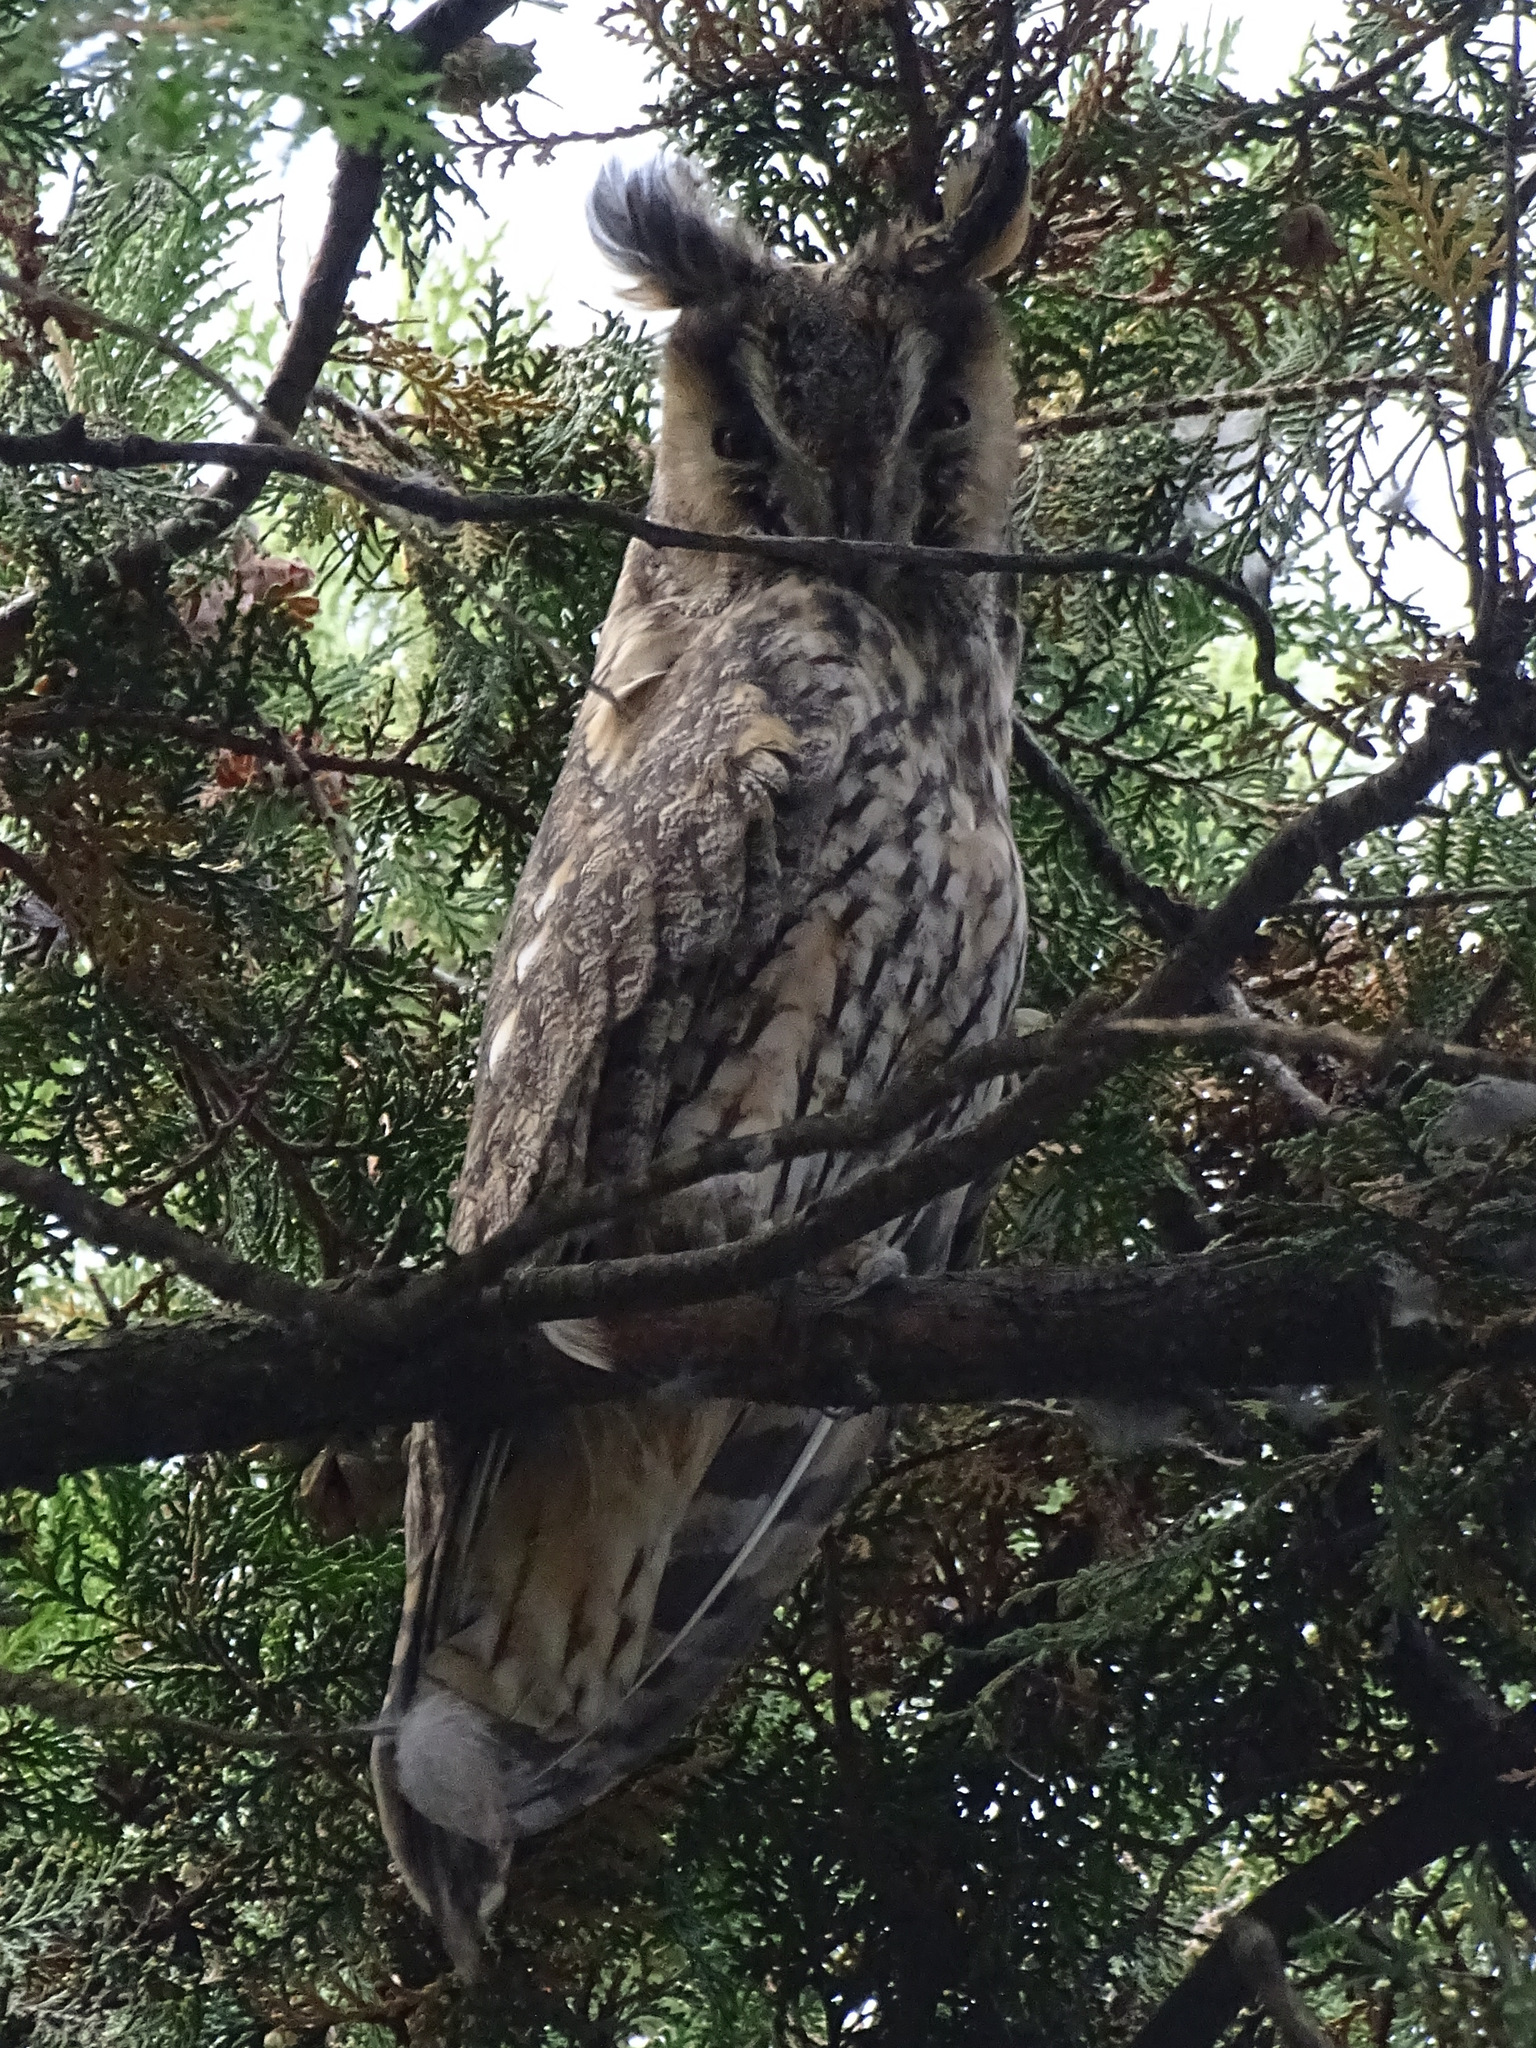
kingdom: Animalia
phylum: Chordata
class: Aves
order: Strigiformes
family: Strigidae
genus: Asio
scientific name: Asio otus
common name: Long-eared owl
